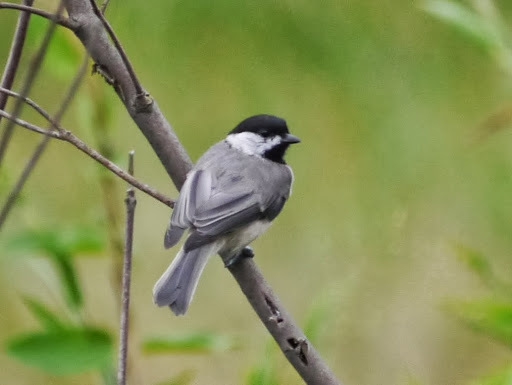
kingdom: Animalia
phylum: Chordata
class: Aves
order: Passeriformes
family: Paridae
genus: Poecile
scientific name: Poecile carolinensis
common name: Carolina chickadee
